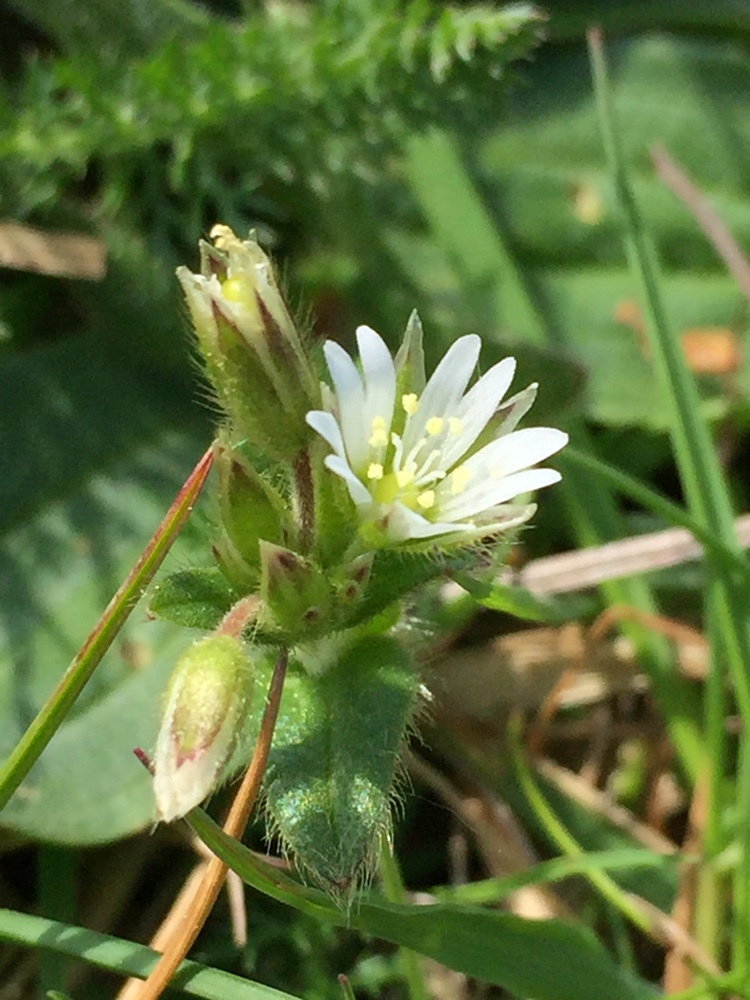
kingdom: Plantae
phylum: Tracheophyta
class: Magnoliopsida
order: Caryophyllales
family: Caryophyllaceae
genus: Cerastium
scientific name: Cerastium fontanum
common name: Common mouse-ear
